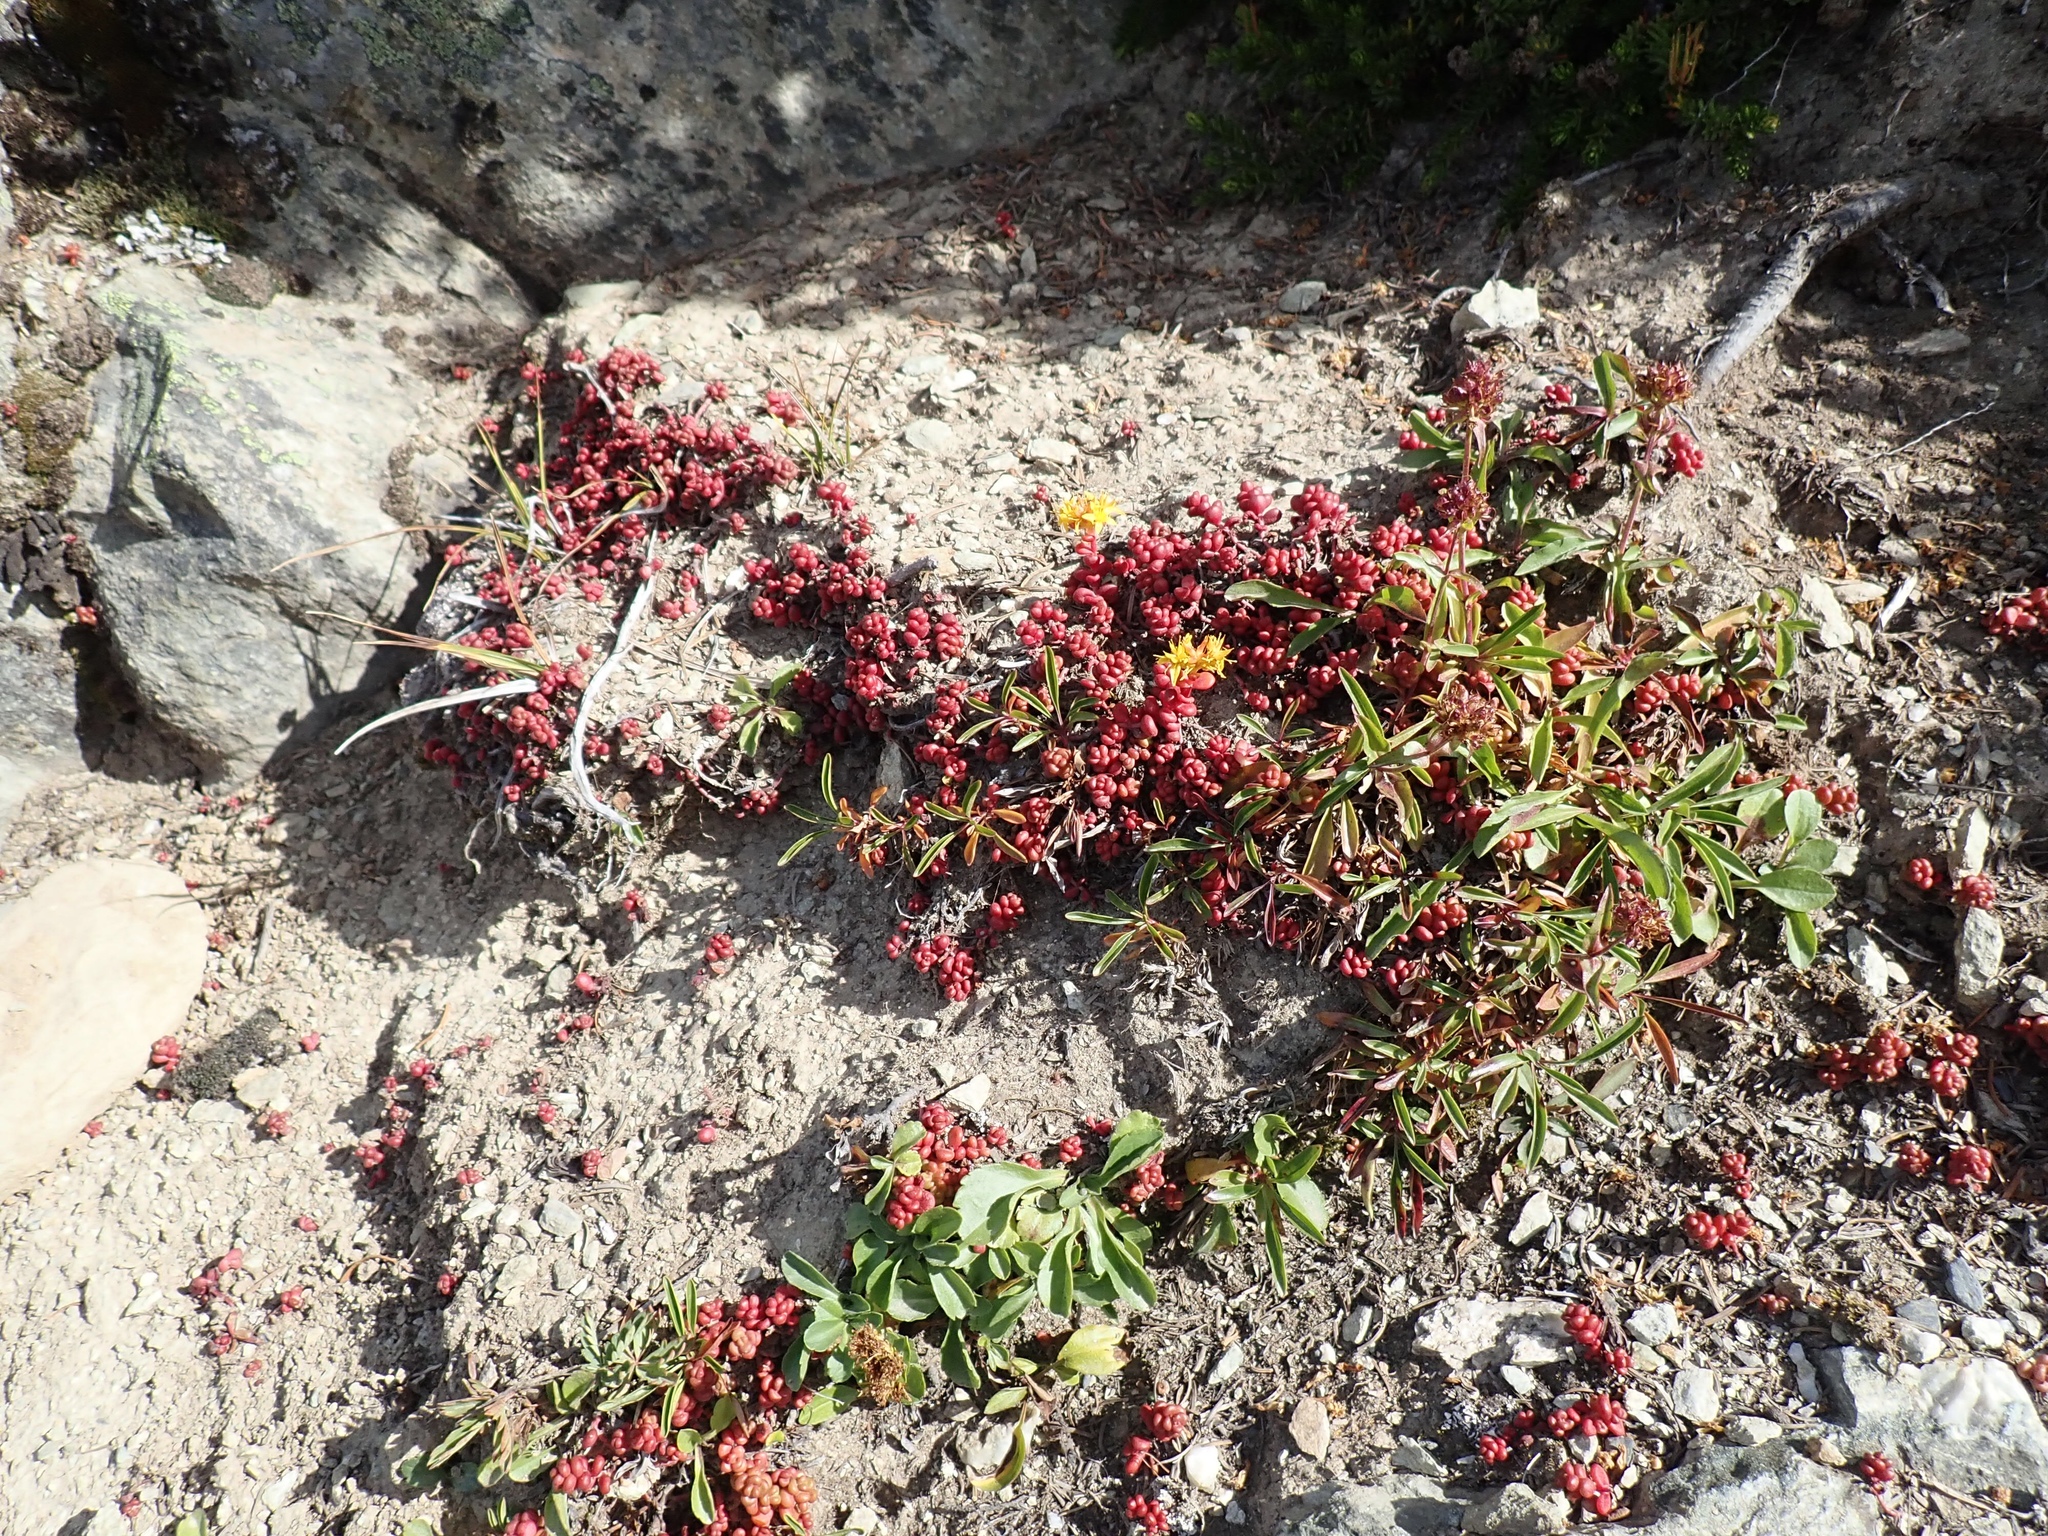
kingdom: Plantae
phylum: Tracheophyta
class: Magnoliopsida
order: Saxifragales
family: Crassulaceae
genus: Sedum
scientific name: Sedum divergens
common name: Cascade stonecrop
